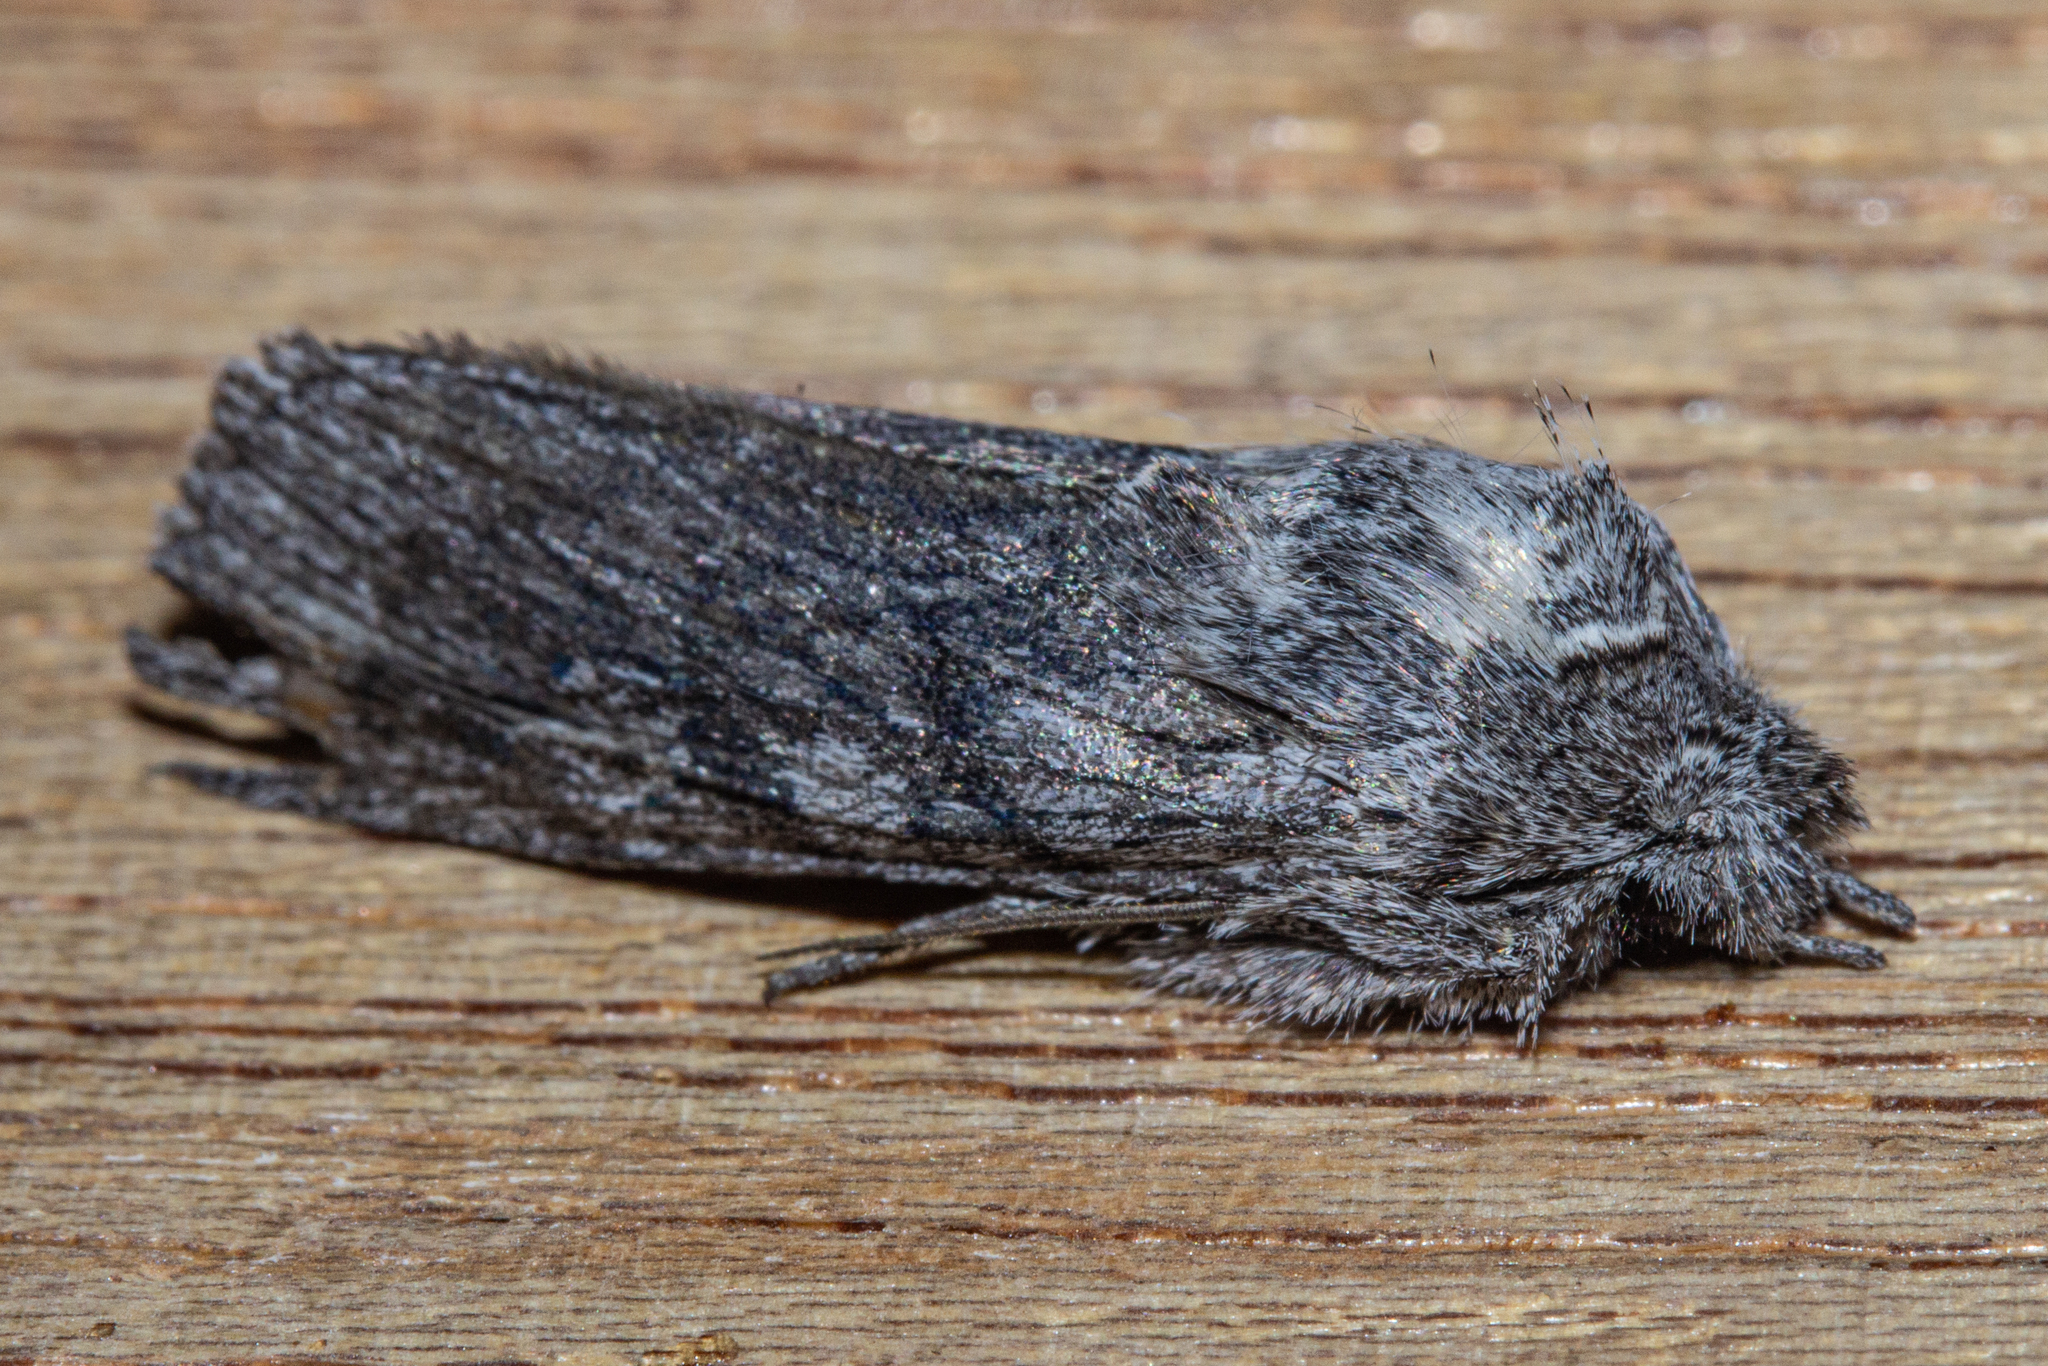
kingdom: Animalia
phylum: Arthropoda
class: Insecta
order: Lepidoptera
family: Noctuidae
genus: Physetica
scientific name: Physetica phricias
